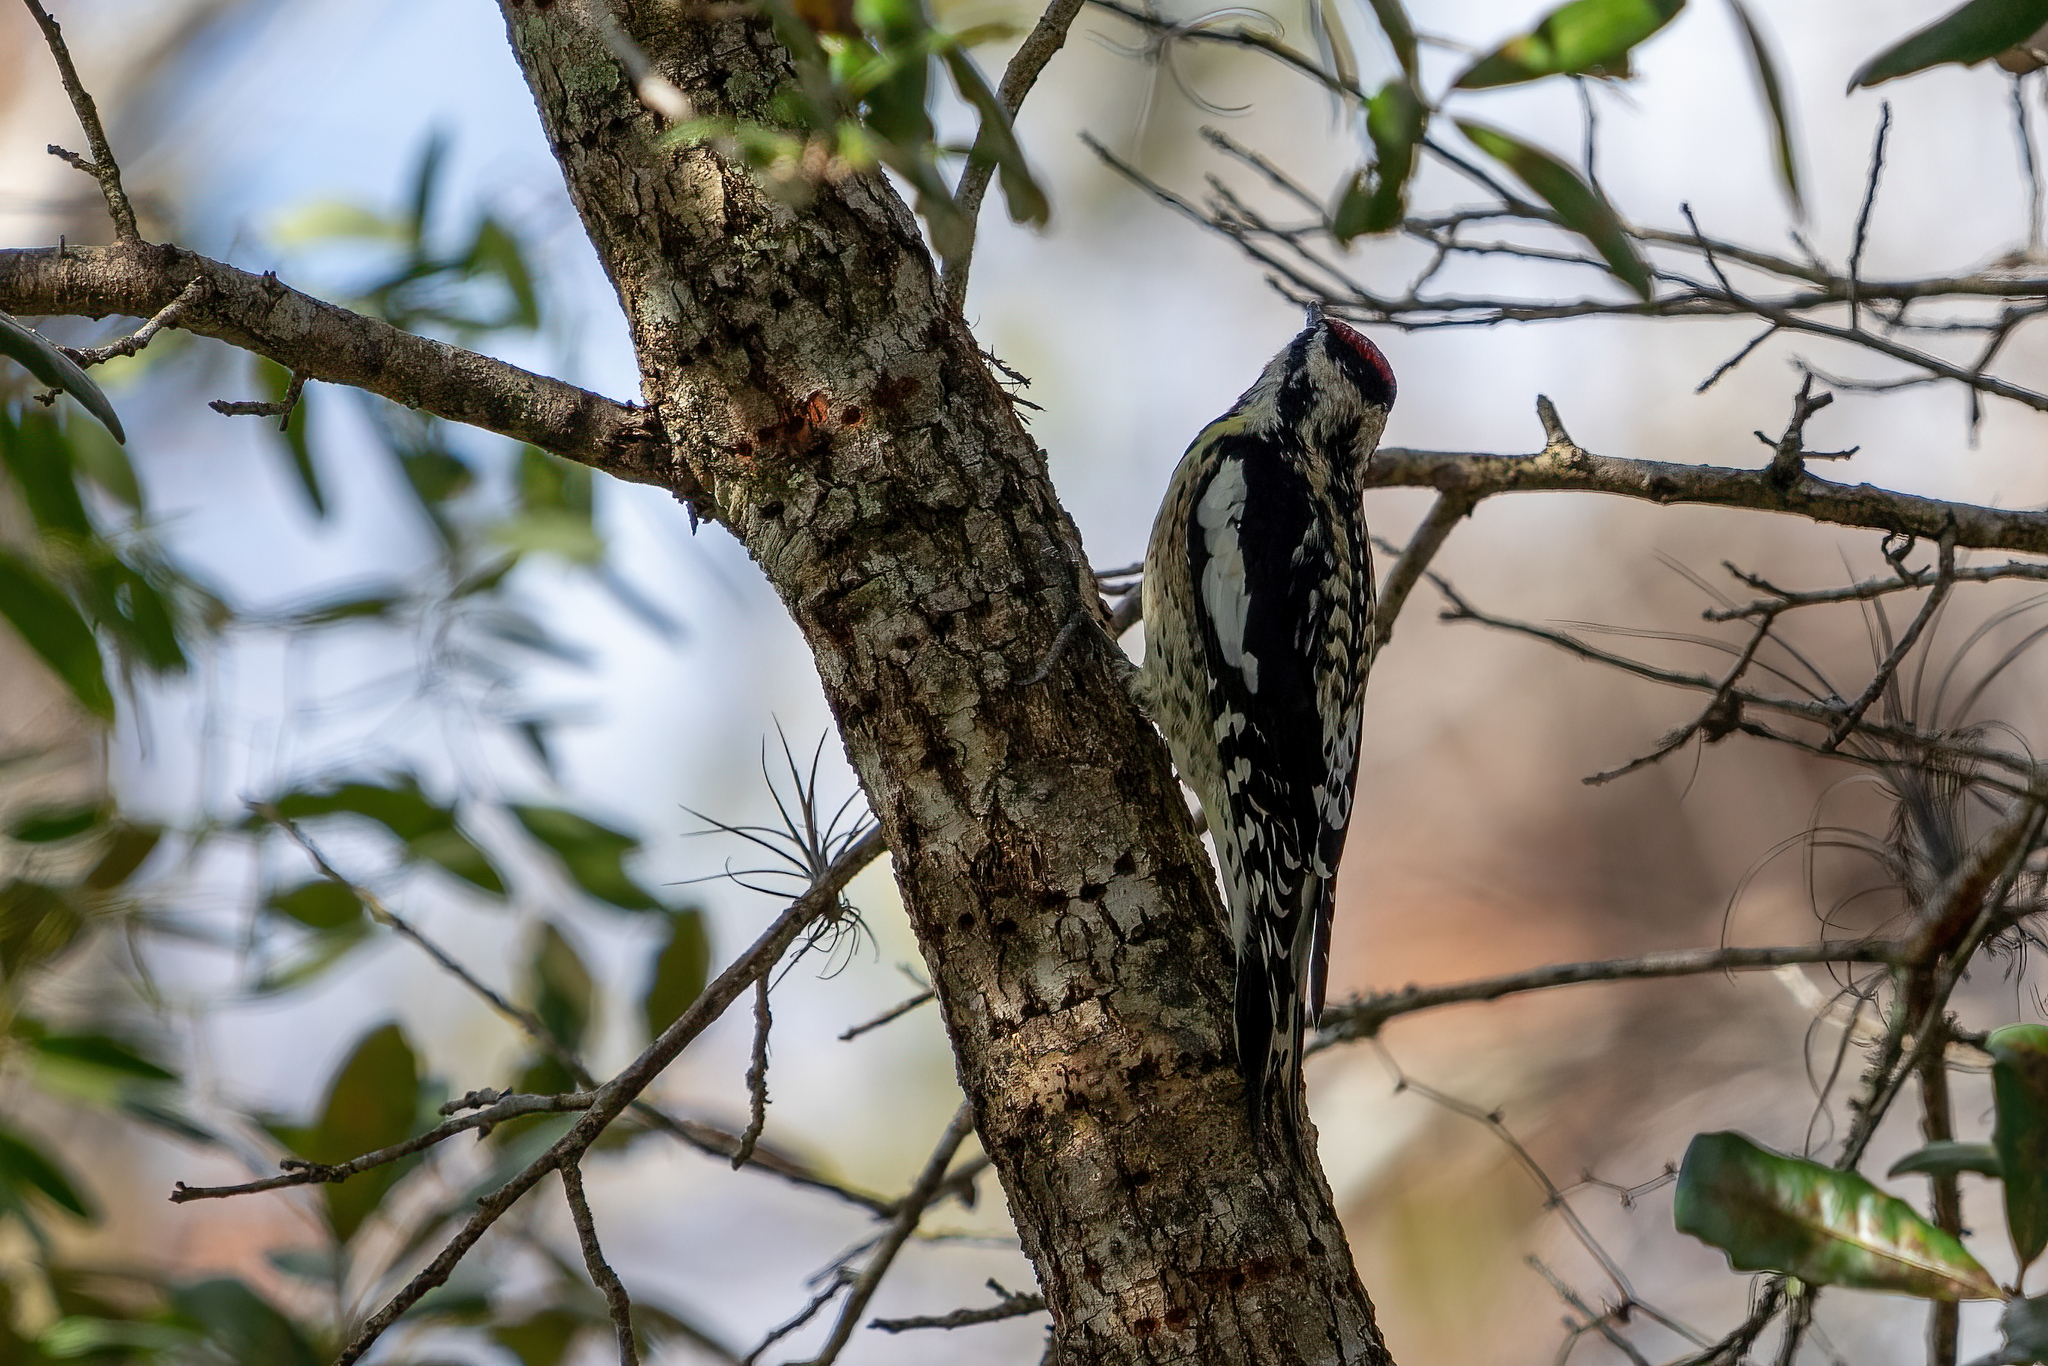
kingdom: Animalia
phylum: Chordata
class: Aves
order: Piciformes
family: Picidae
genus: Sphyrapicus
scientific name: Sphyrapicus varius
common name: Yellow-bellied sapsucker
